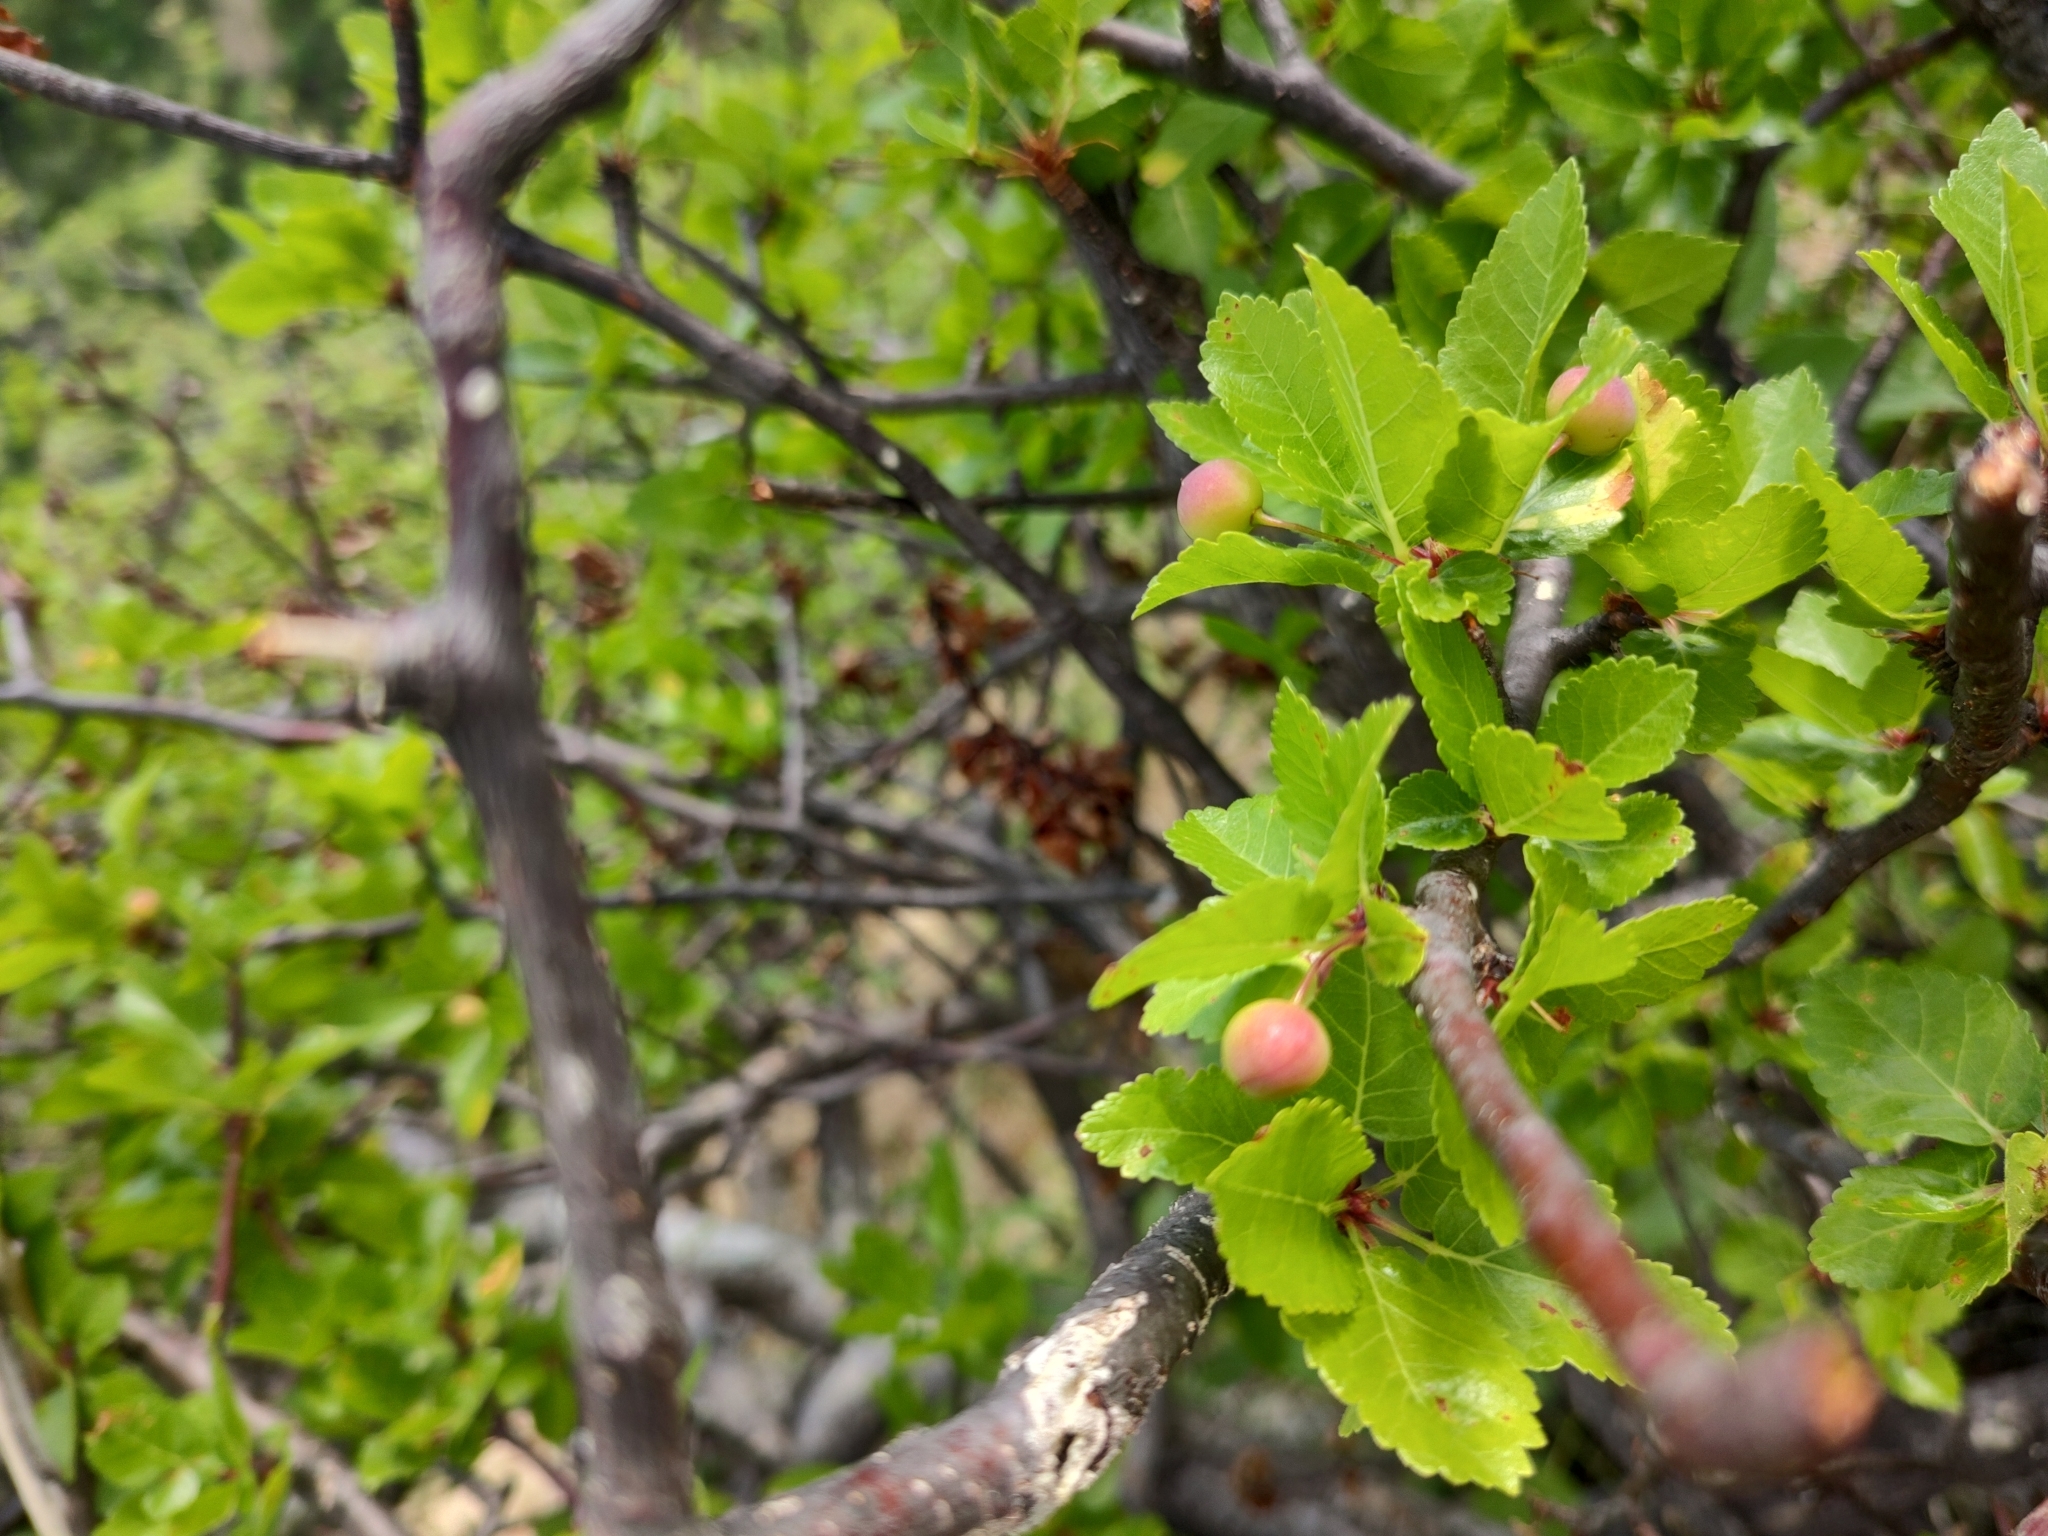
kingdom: Plantae
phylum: Tracheophyta
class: Magnoliopsida
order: Sapindales
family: Burseraceae
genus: Bursera
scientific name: Bursera epinnata
